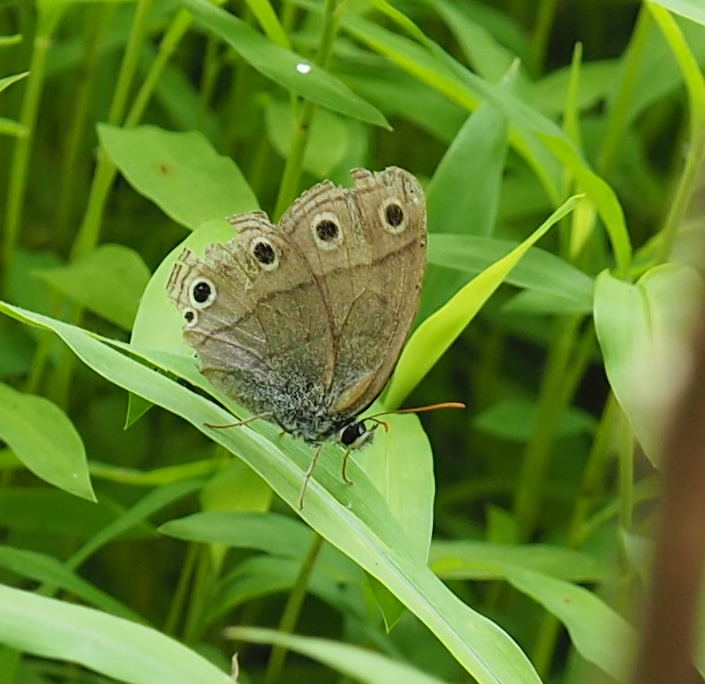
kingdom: Animalia
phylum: Arthropoda
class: Insecta
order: Lepidoptera
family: Nymphalidae
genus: Euptychia
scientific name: Euptychia cymela
